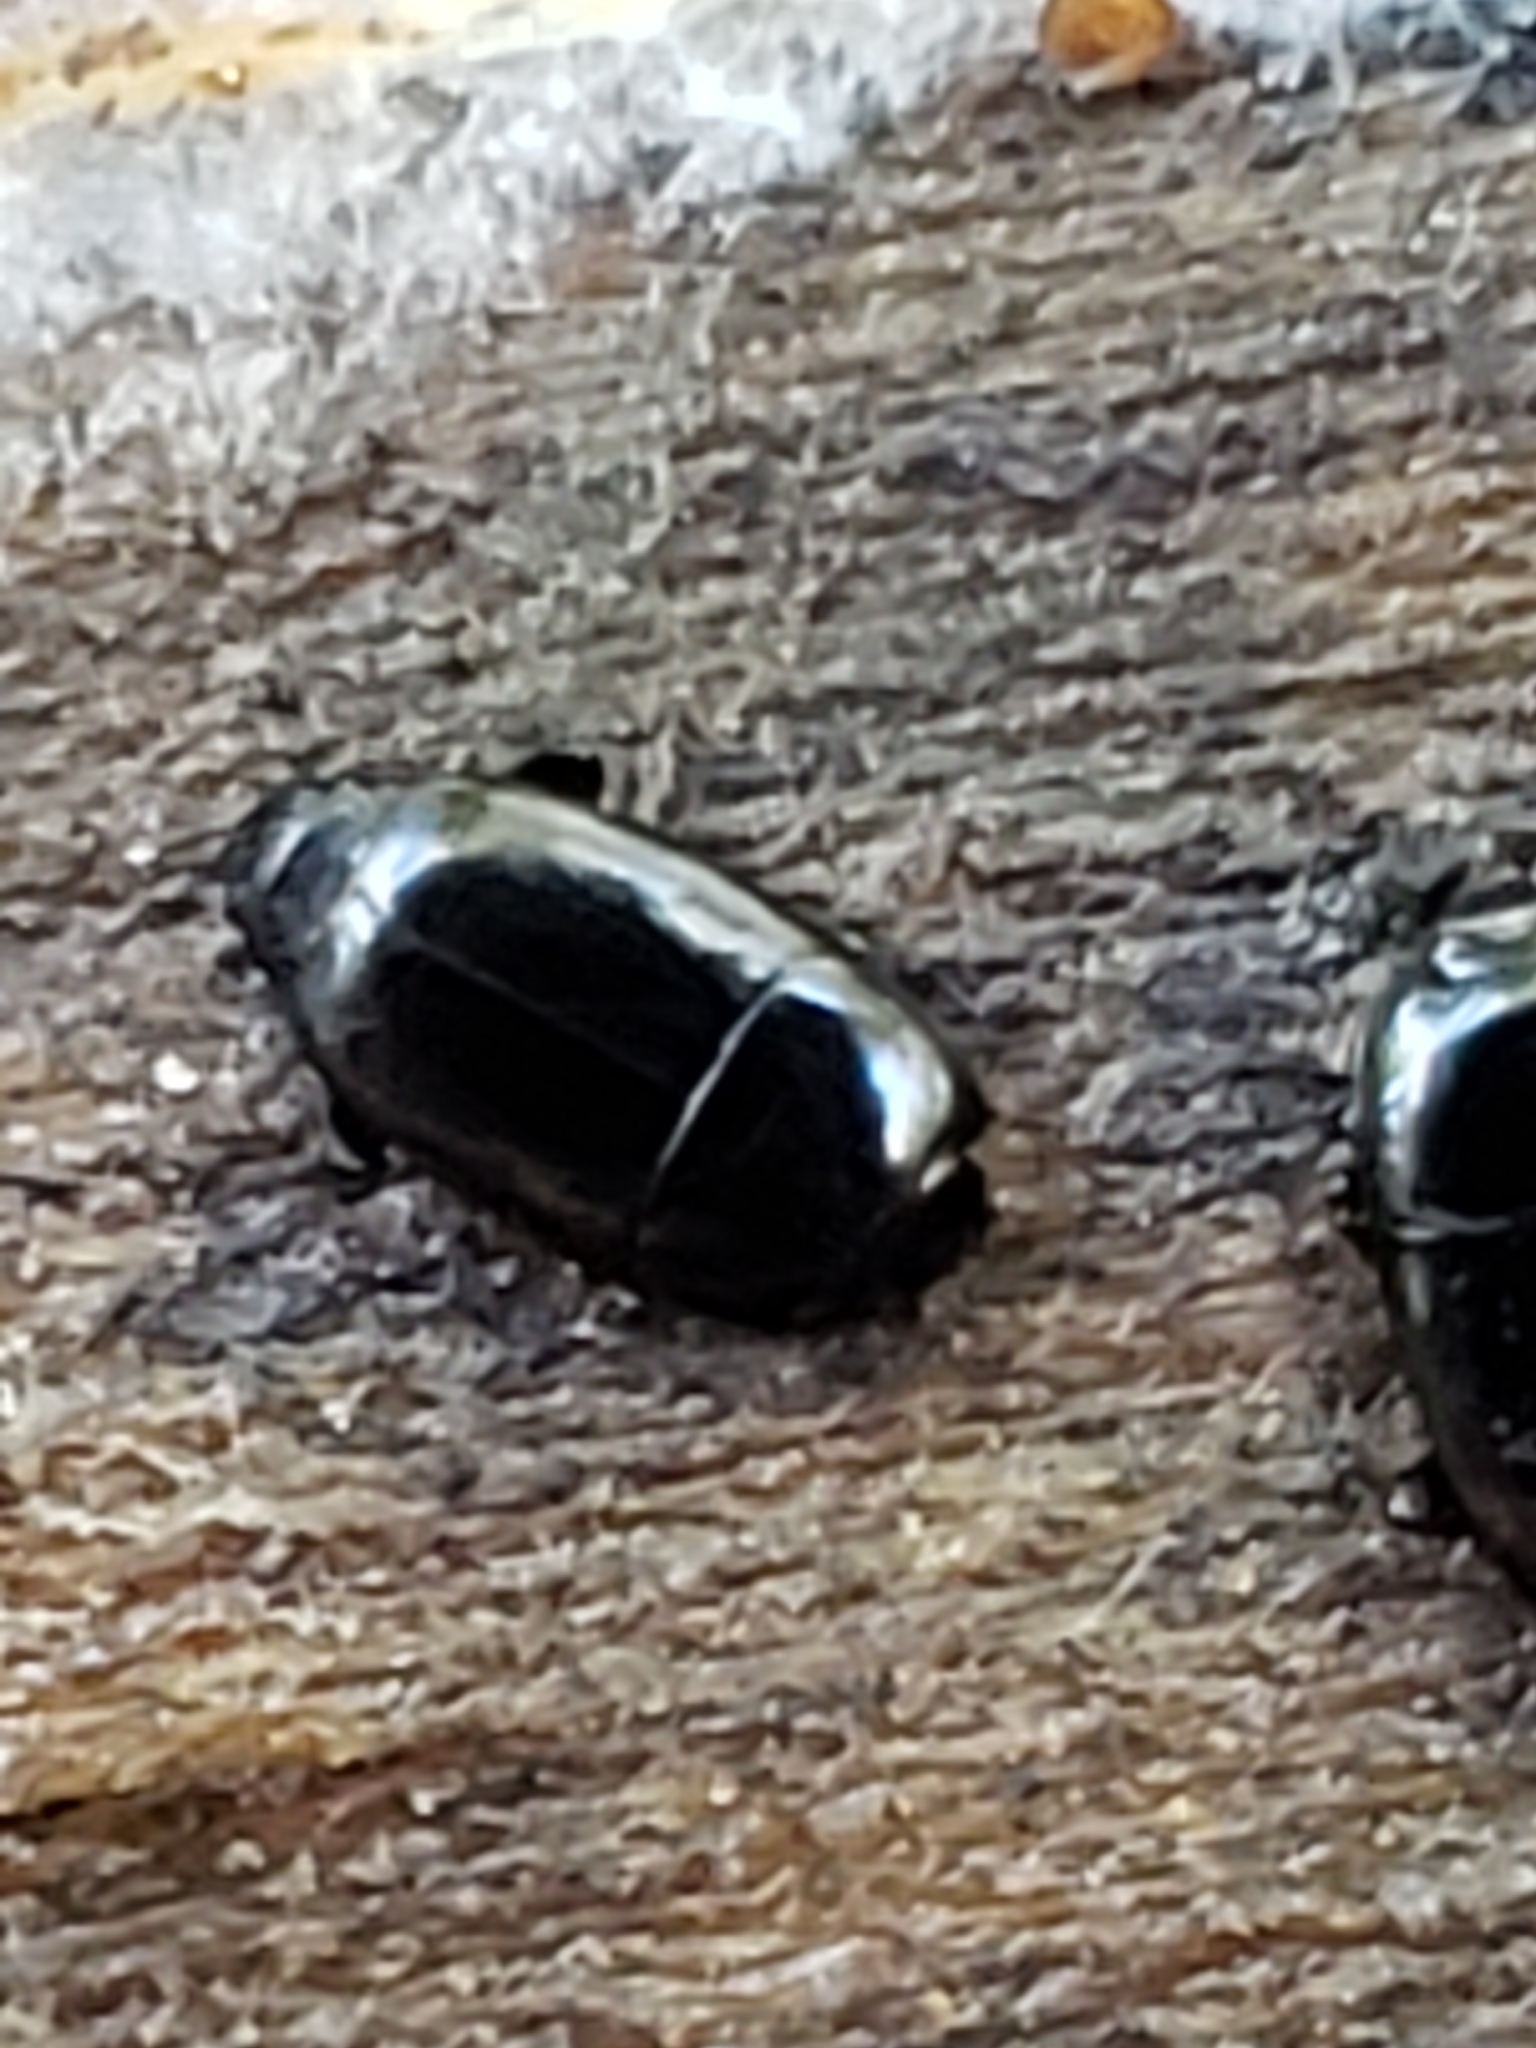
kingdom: Animalia
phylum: Arthropoda
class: Insecta
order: Coleoptera
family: Histeridae
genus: Platylomalus
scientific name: Platylomalus aequalis
